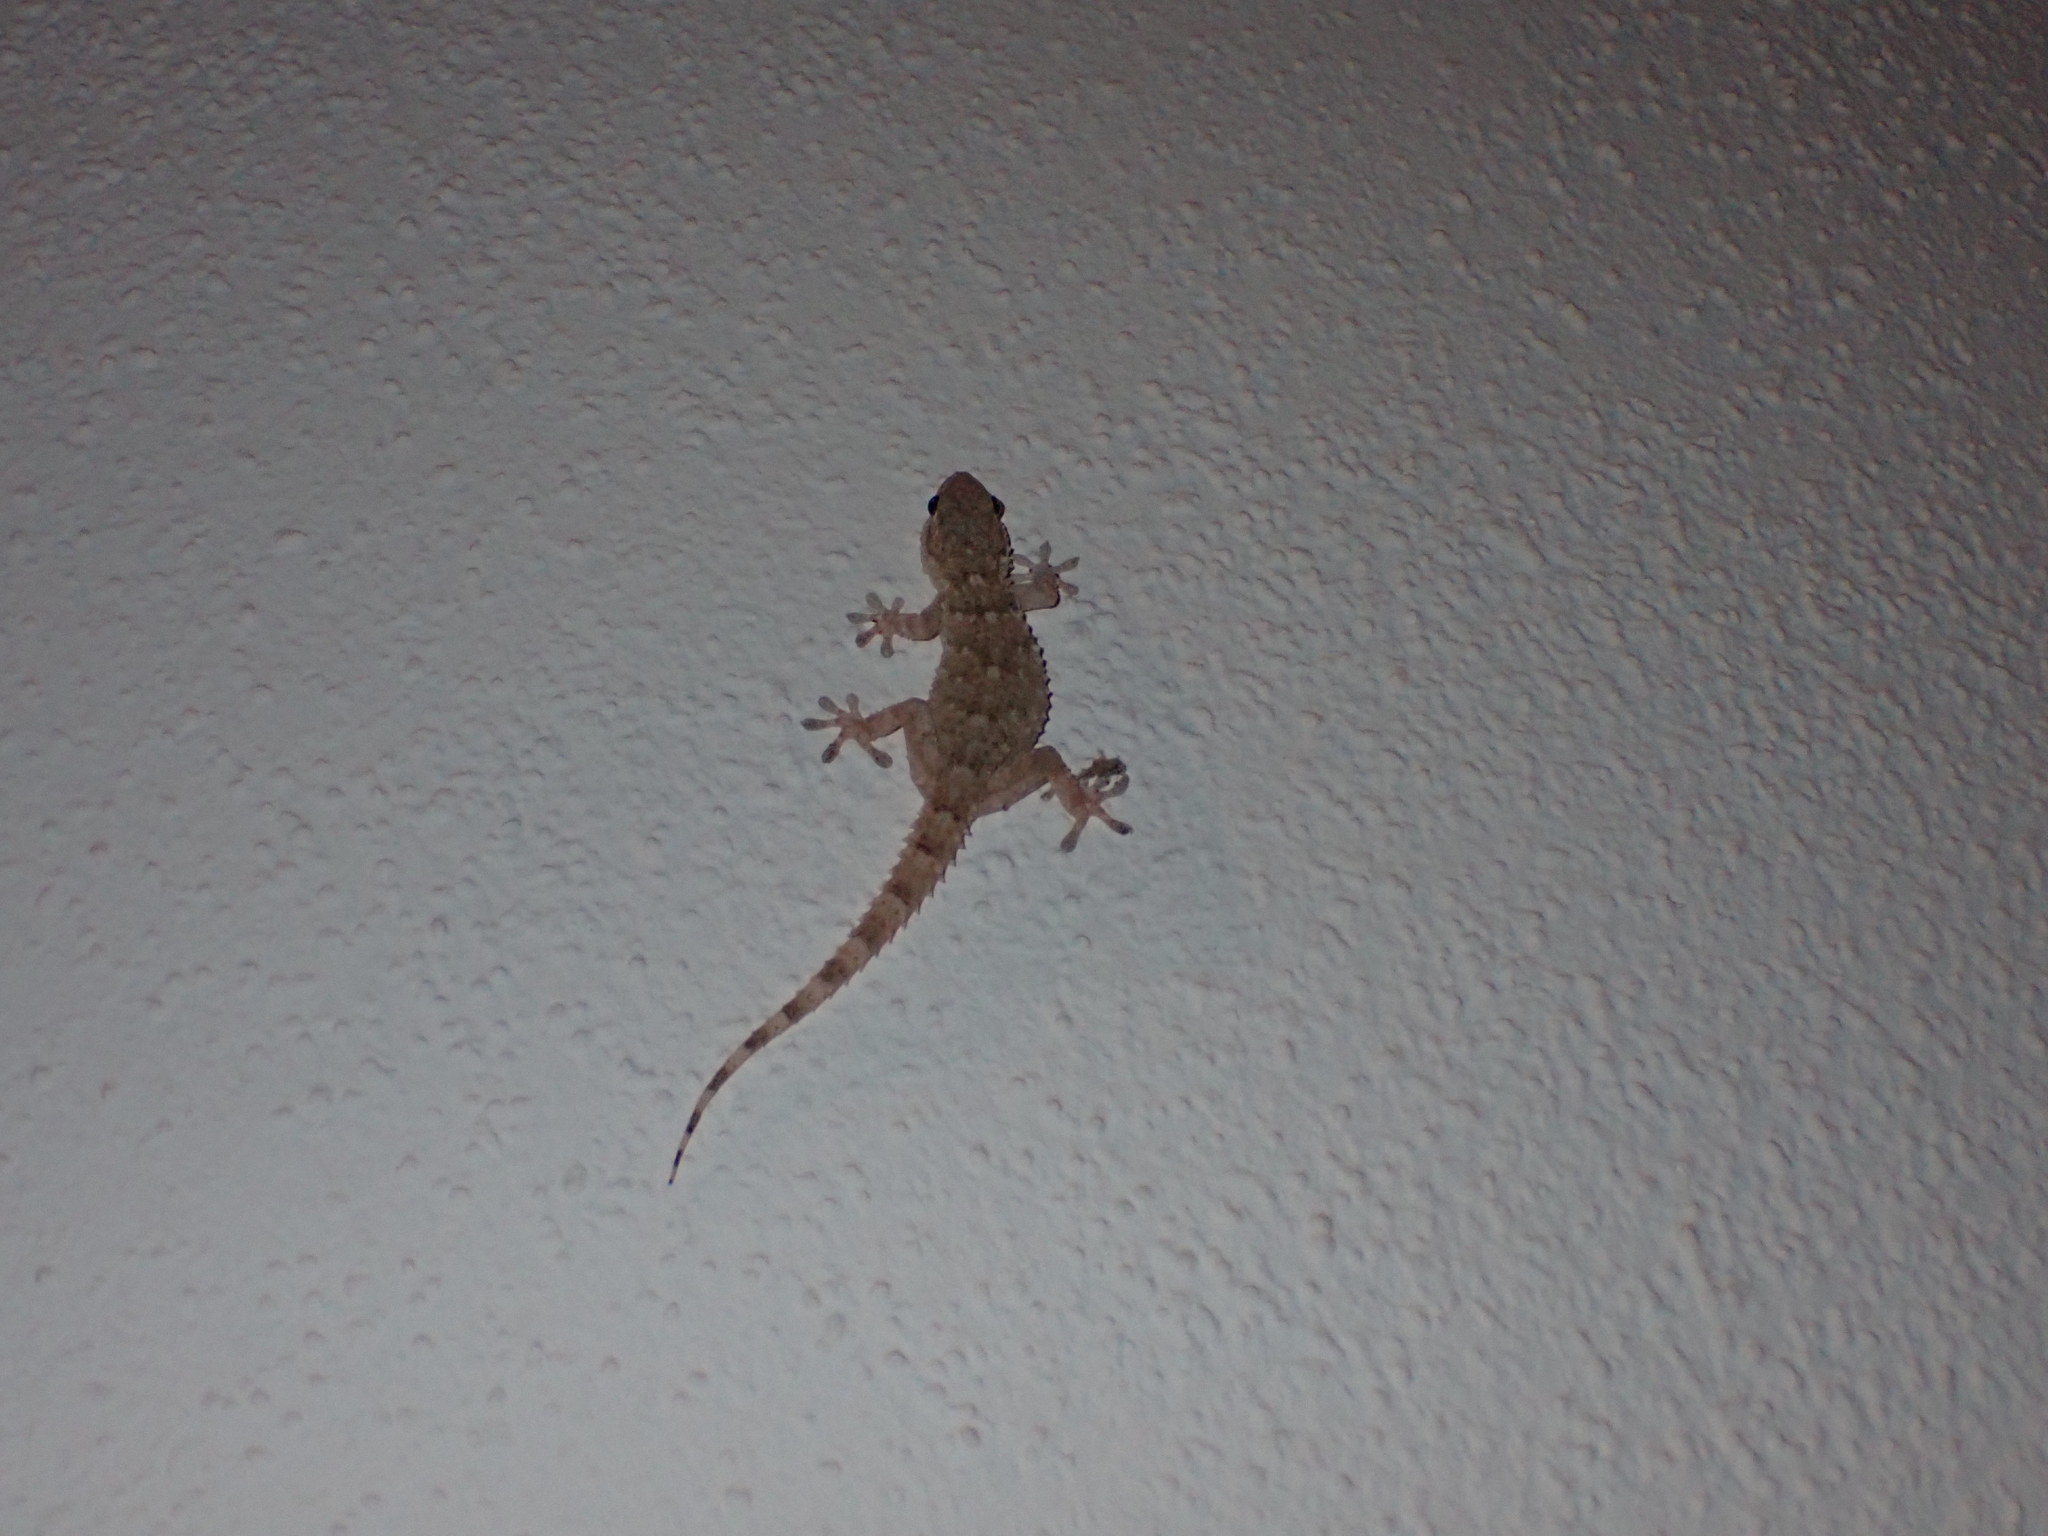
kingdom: Animalia
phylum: Chordata
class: Squamata
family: Phyllodactylidae
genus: Tarentola
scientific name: Tarentola mauritanica
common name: Moorish gecko
